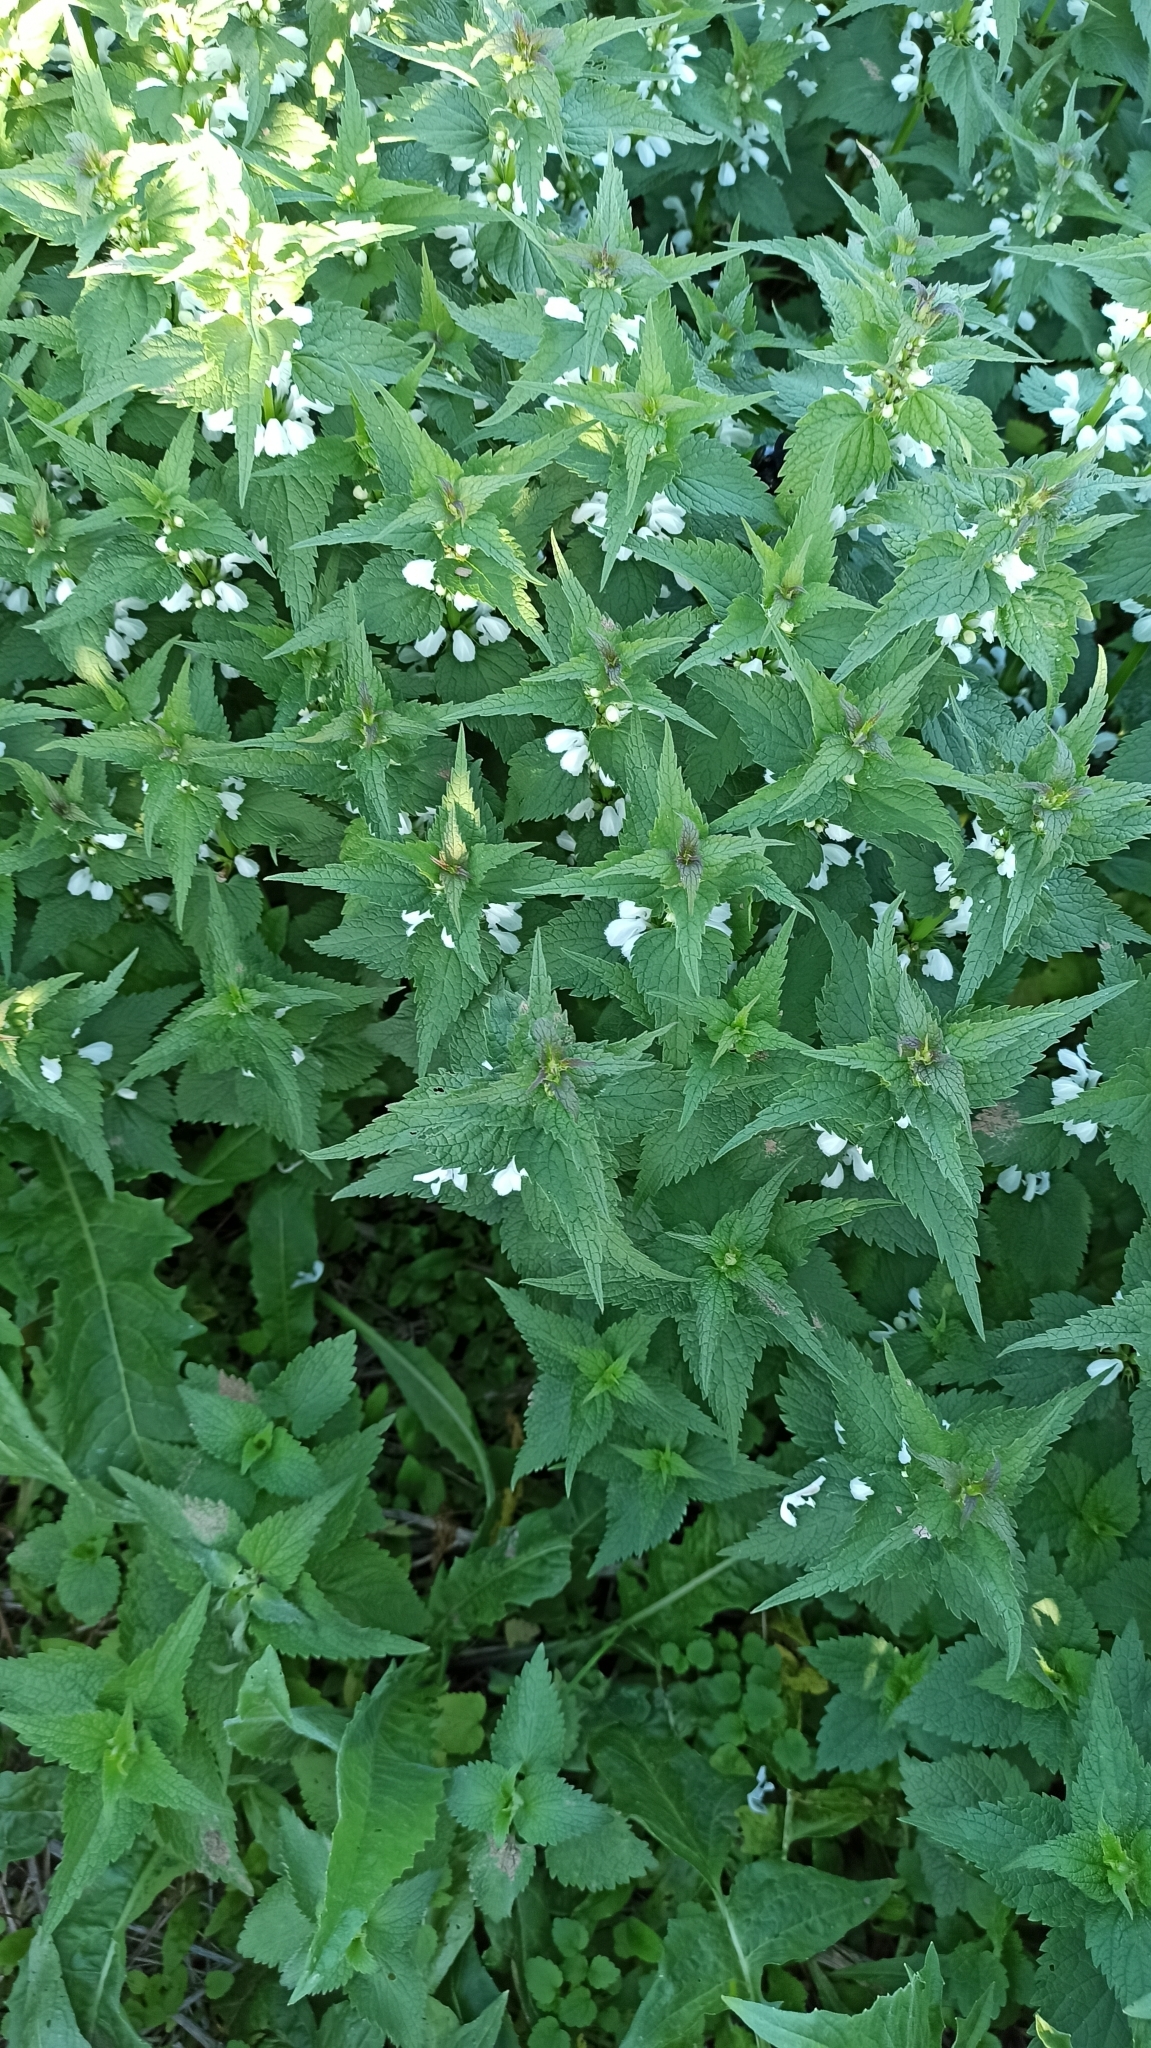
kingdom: Plantae
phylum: Tracheophyta
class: Magnoliopsida
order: Lamiales
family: Lamiaceae
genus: Lamium
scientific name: Lamium album
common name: White dead-nettle
